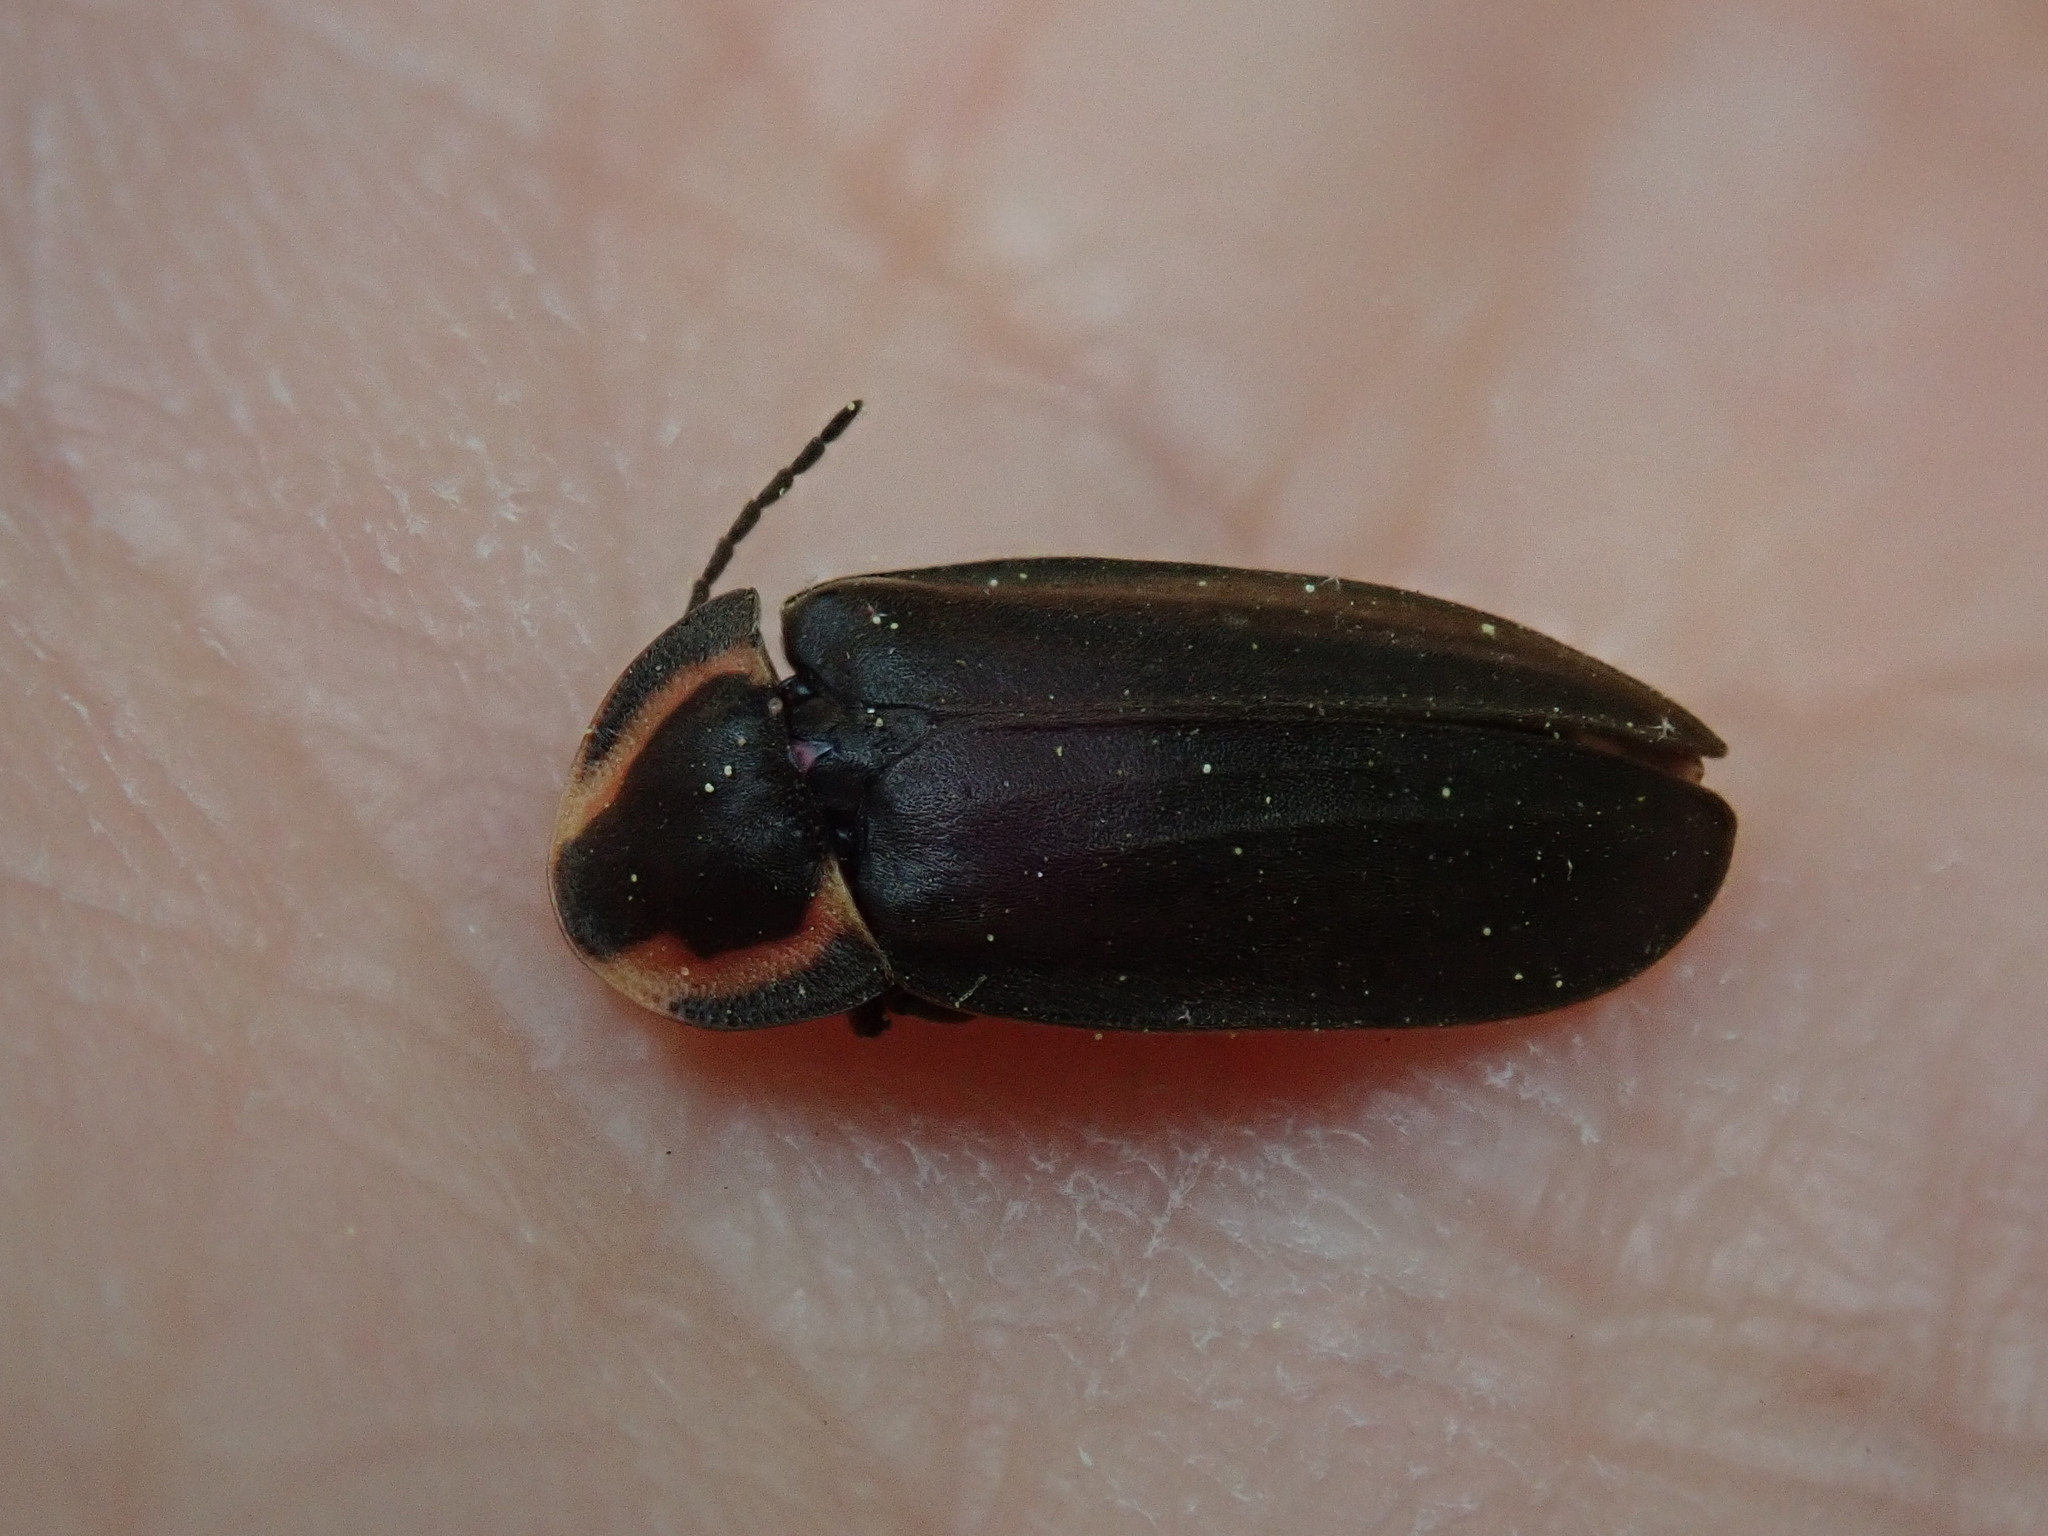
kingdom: Animalia
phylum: Arthropoda
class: Insecta
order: Coleoptera
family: Lampyridae
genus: Photinus
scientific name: Photinus corrusca
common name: Winter firefly
